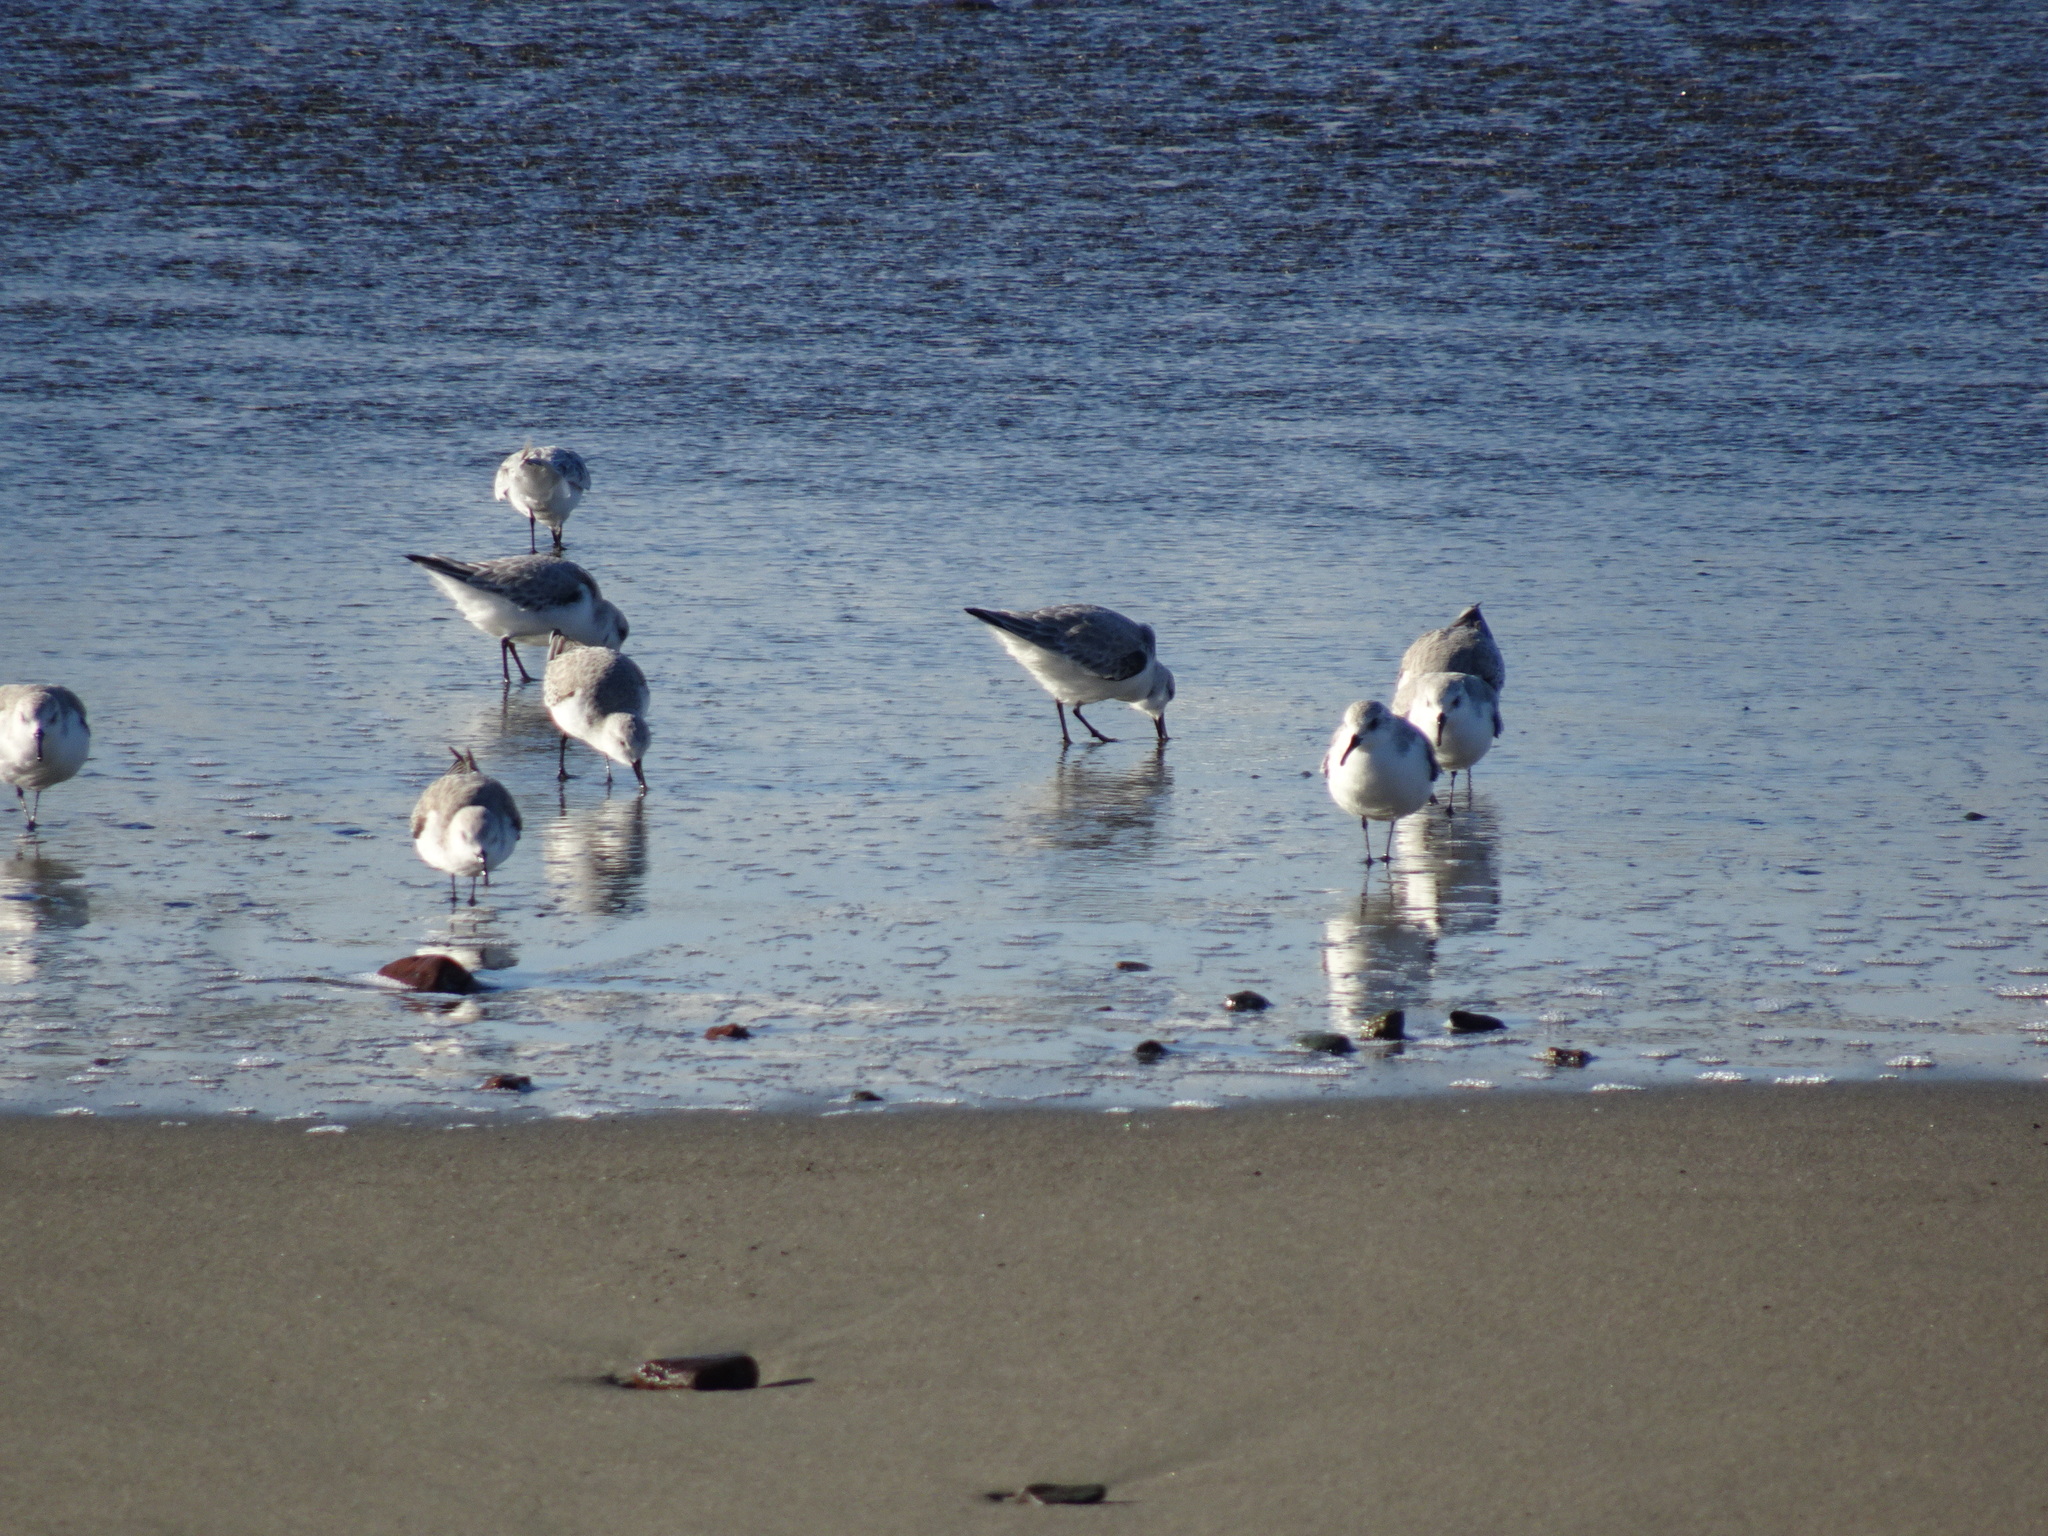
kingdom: Animalia
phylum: Chordata
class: Aves
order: Charadriiformes
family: Scolopacidae
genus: Calidris
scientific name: Calidris alba
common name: Sanderling
